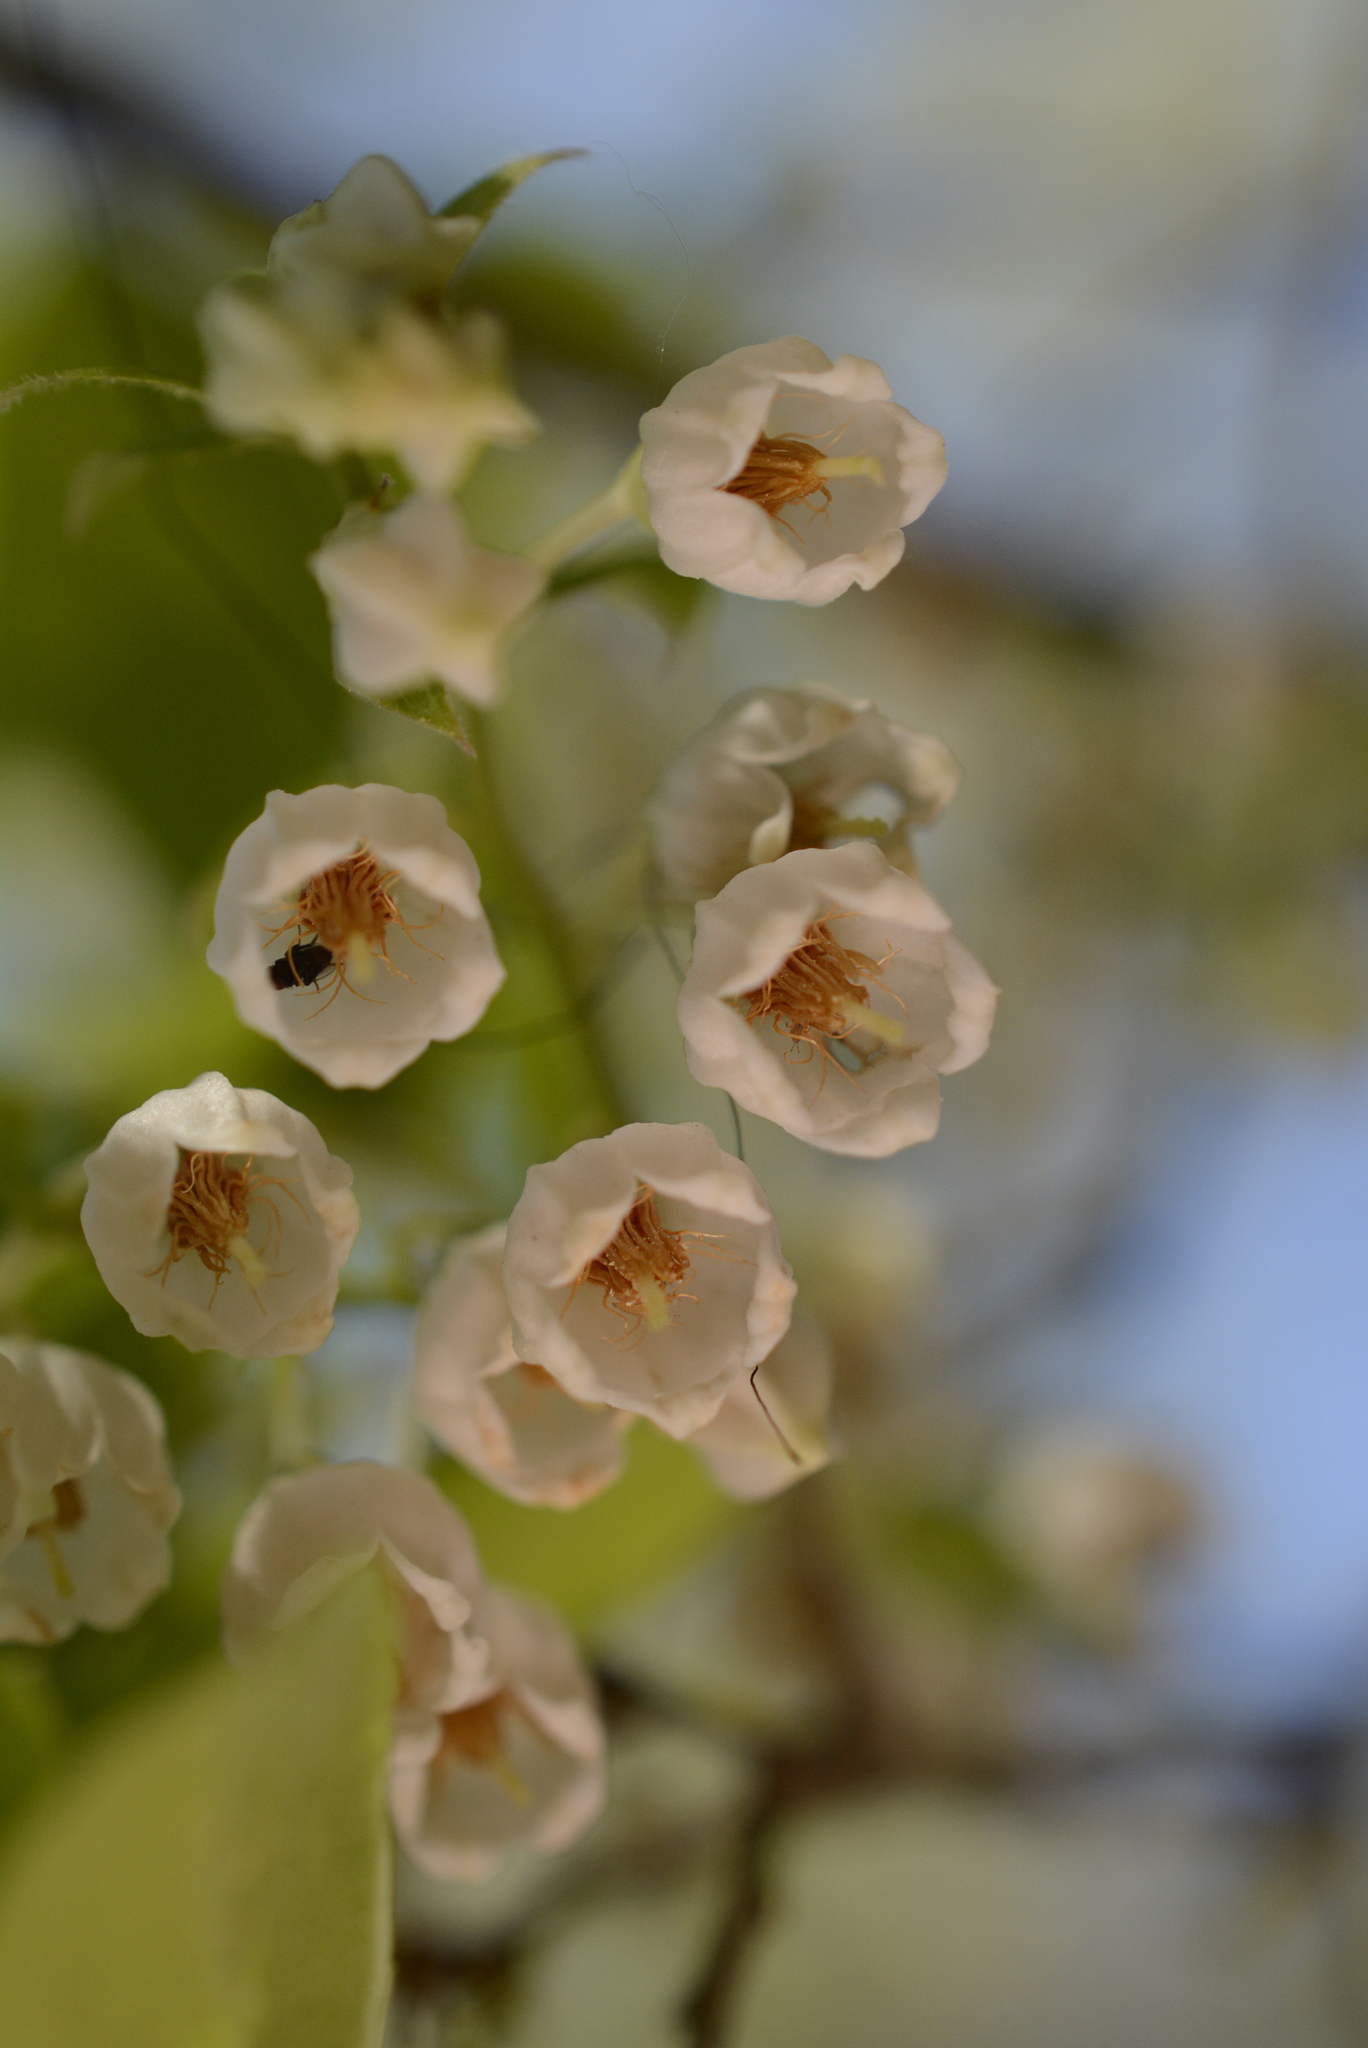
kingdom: Plantae
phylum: Tracheophyta
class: Magnoliopsida
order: Ericales
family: Ericaceae
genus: Vaccinium
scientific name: Vaccinium arboreum
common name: Farkleberry
